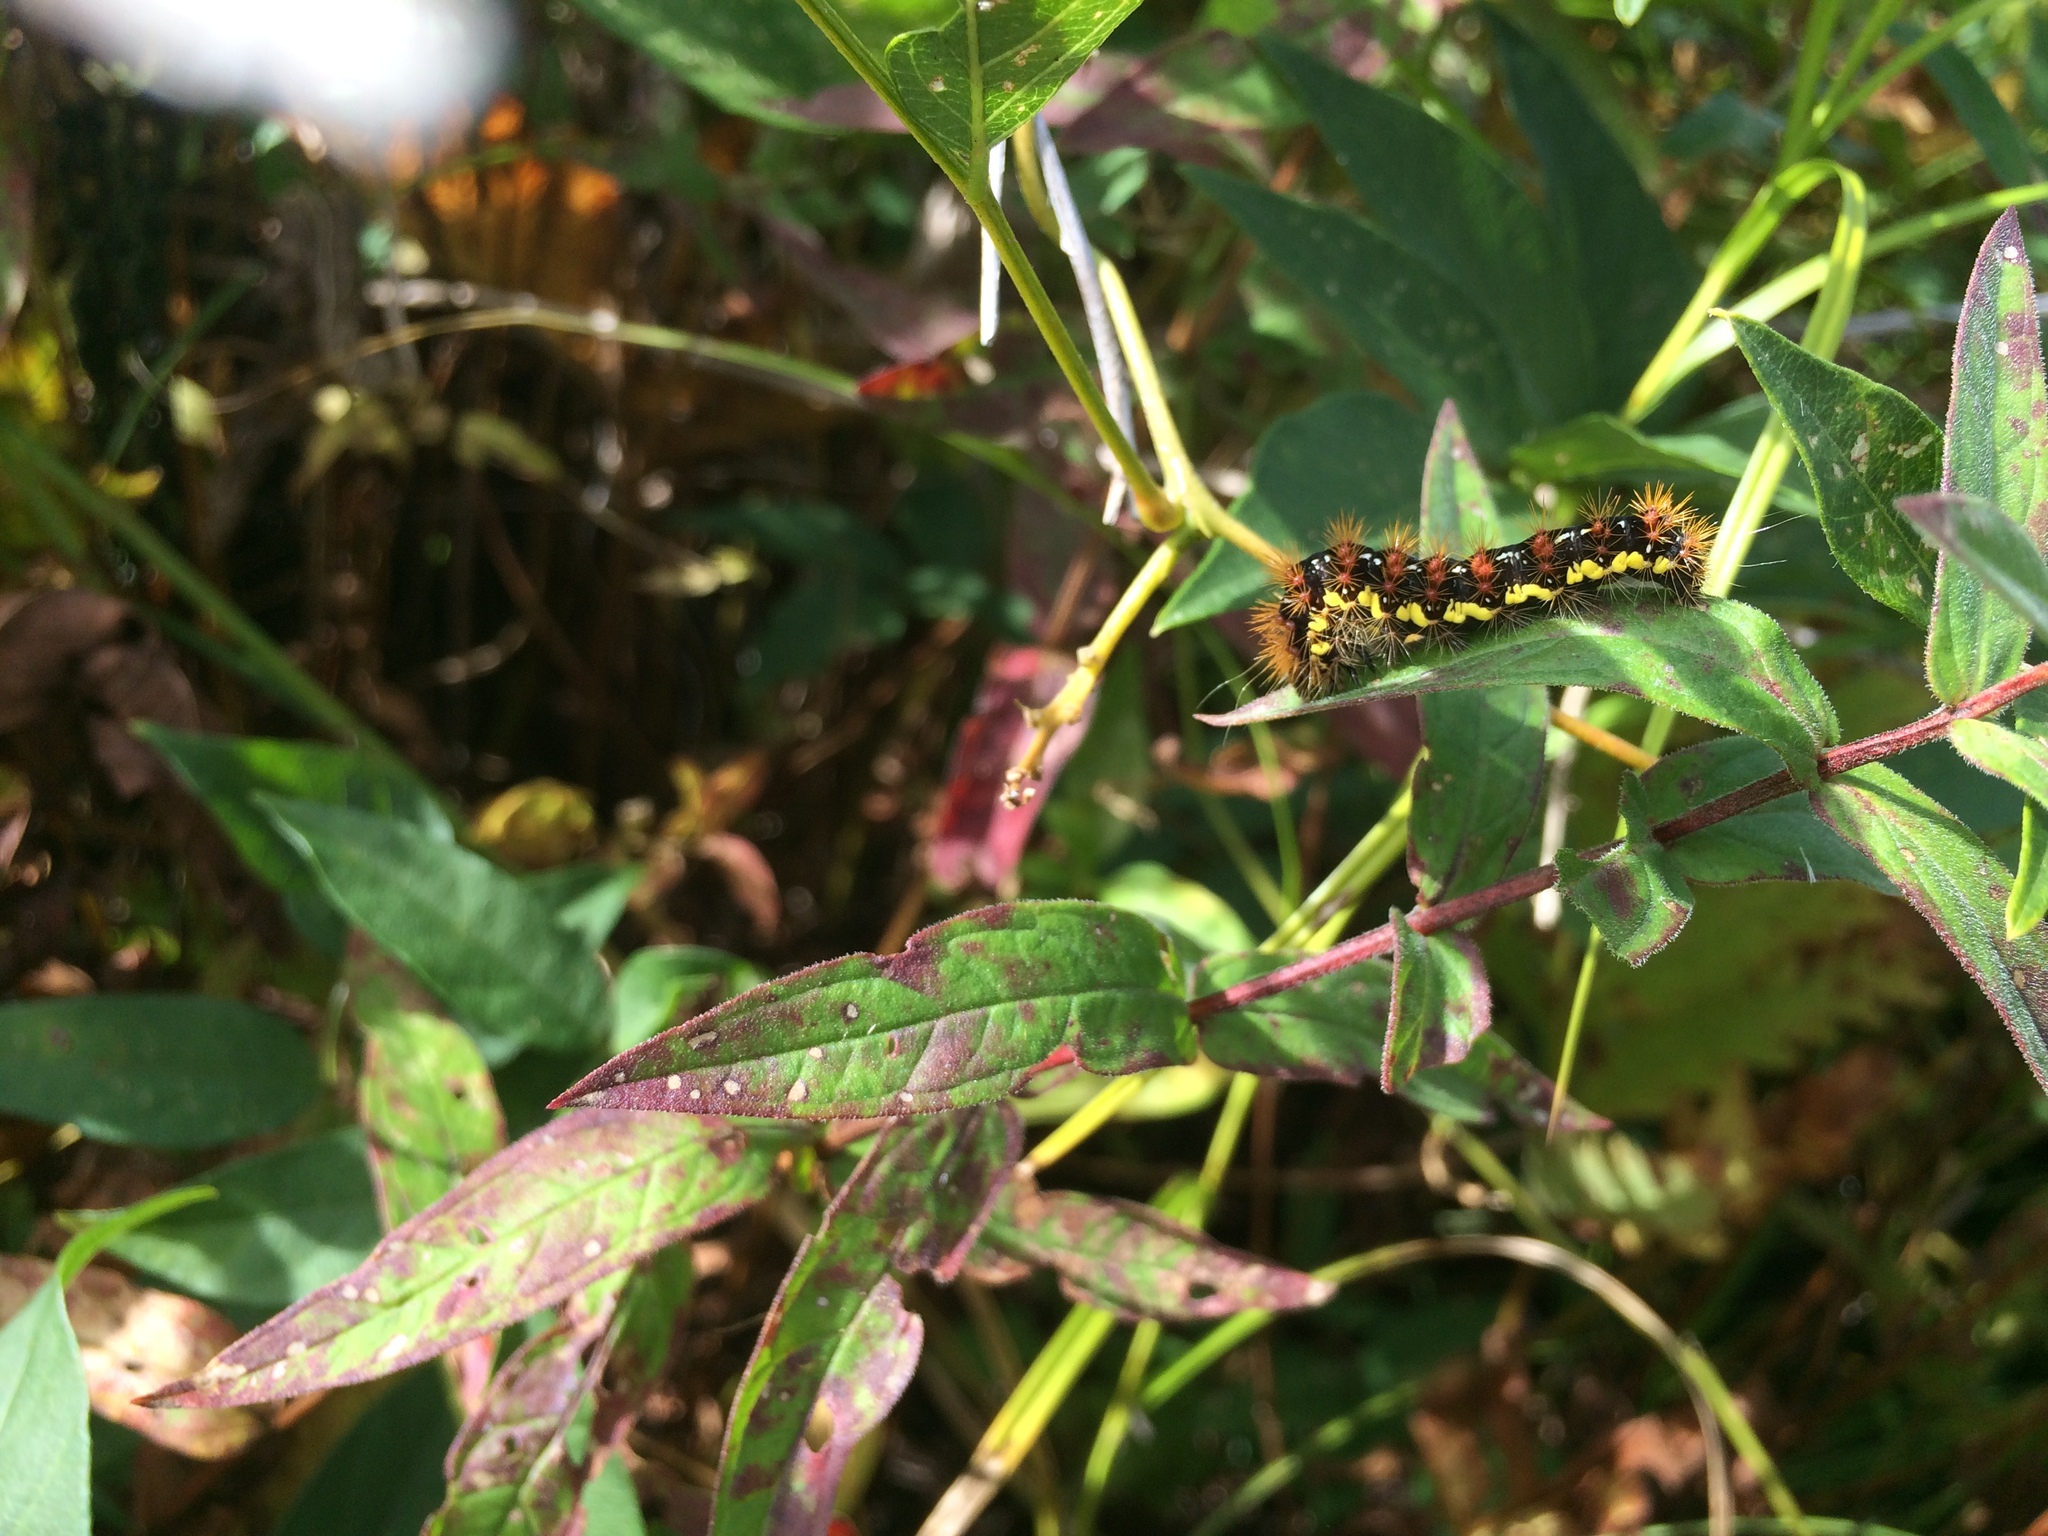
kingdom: Animalia
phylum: Arthropoda
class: Insecta
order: Lepidoptera
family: Noctuidae
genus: Acronicta
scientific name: Acronicta oblinita
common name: Smeared dagger
